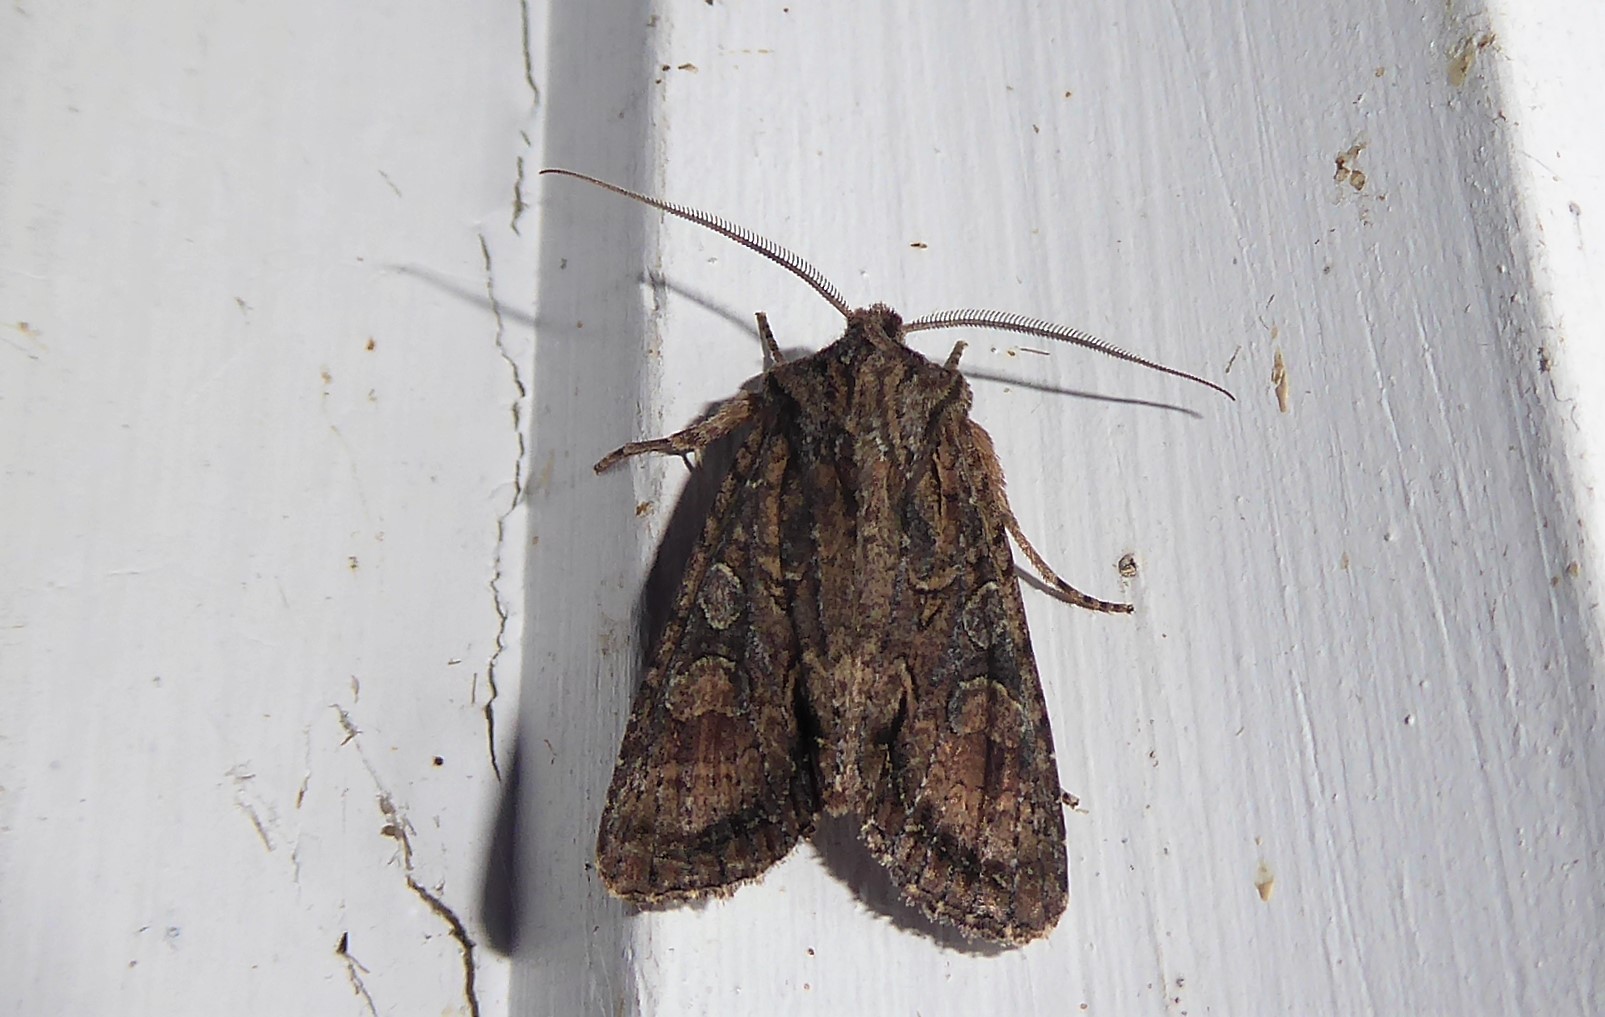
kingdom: Animalia
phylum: Arthropoda
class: Insecta
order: Lepidoptera
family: Noctuidae
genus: Ichneutica
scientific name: Ichneutica mutans
